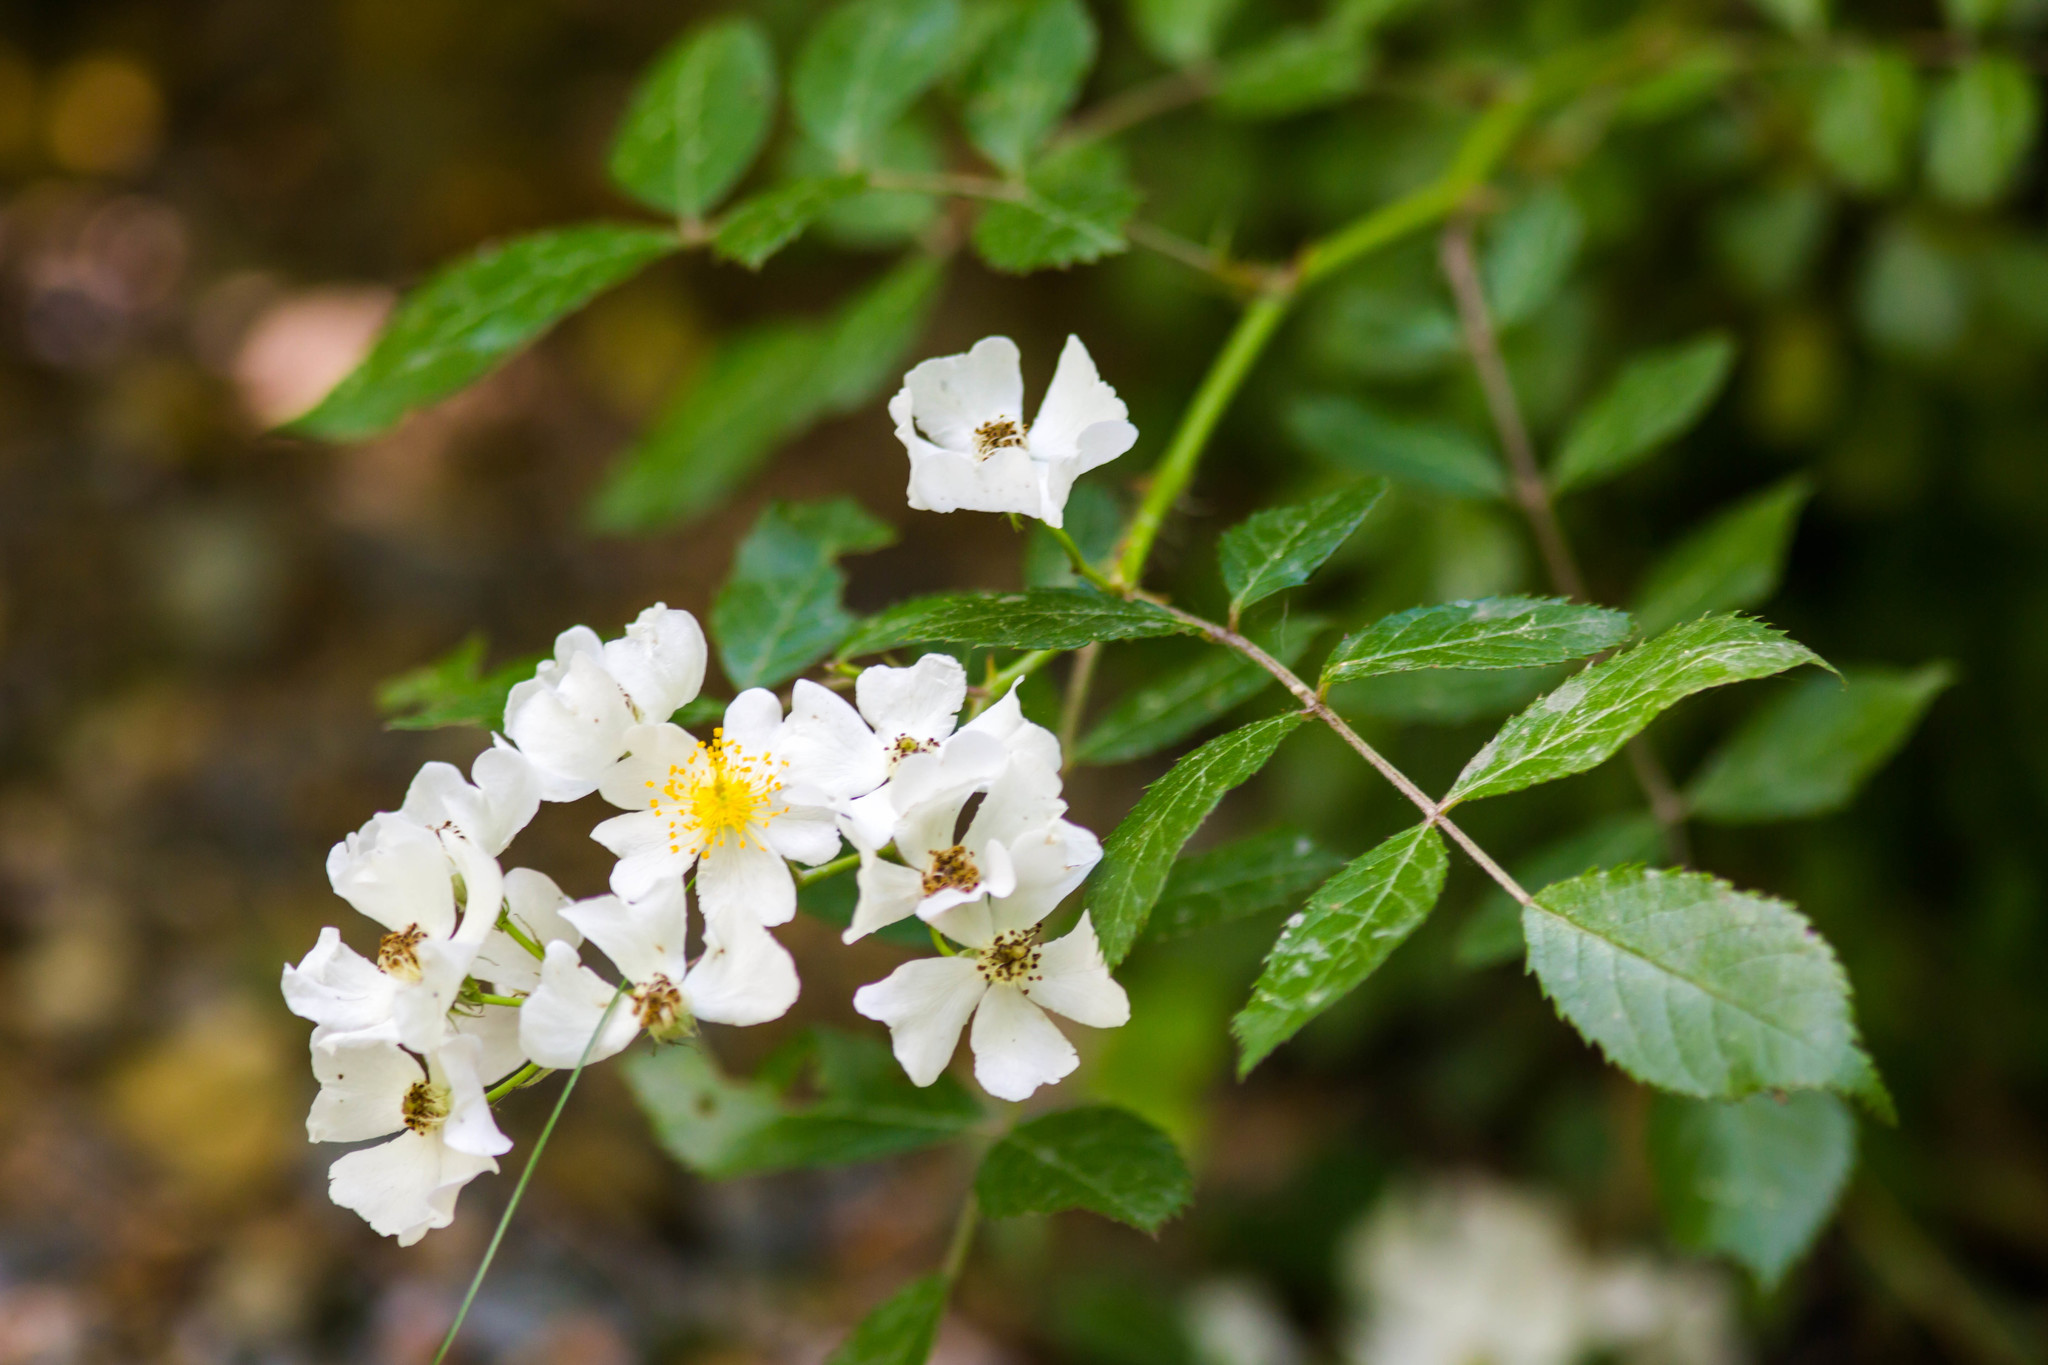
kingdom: Plantae
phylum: Tracheophyta
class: Magnoliopsida
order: Rosales
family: Rosaceae
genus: Rosa
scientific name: Rosa multiflora
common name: Multiflora rose
